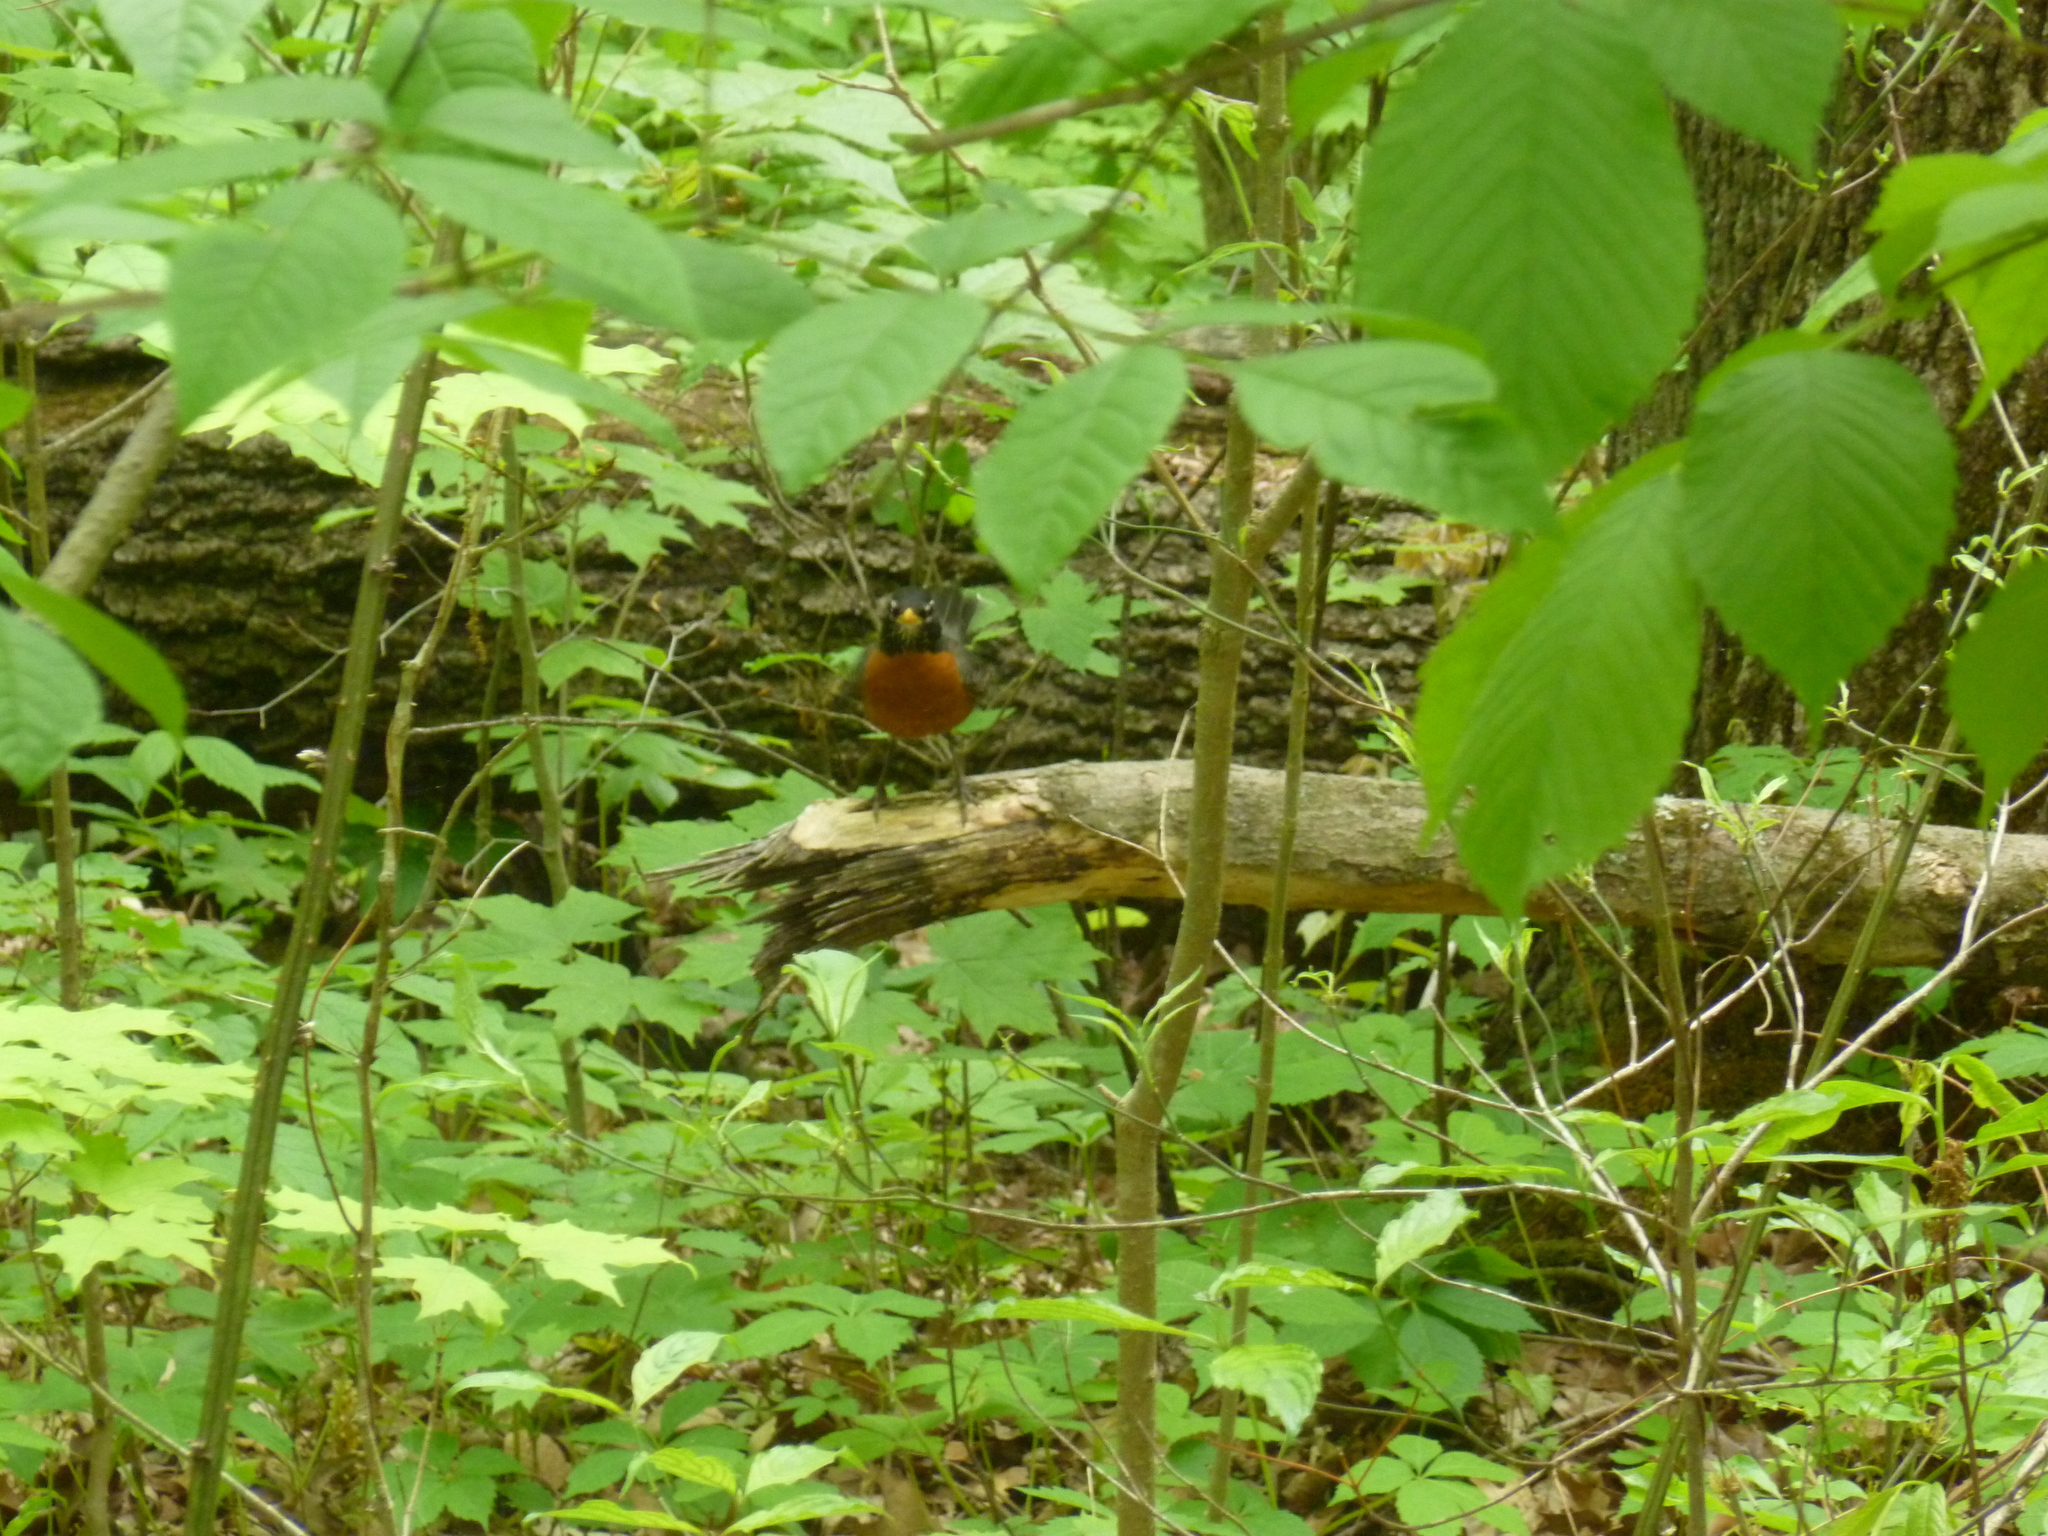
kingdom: Animalia
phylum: Chordata
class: Aves
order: Passeriformes
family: Turdidae
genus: Turdus
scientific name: Turdus migratorius
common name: American robin
